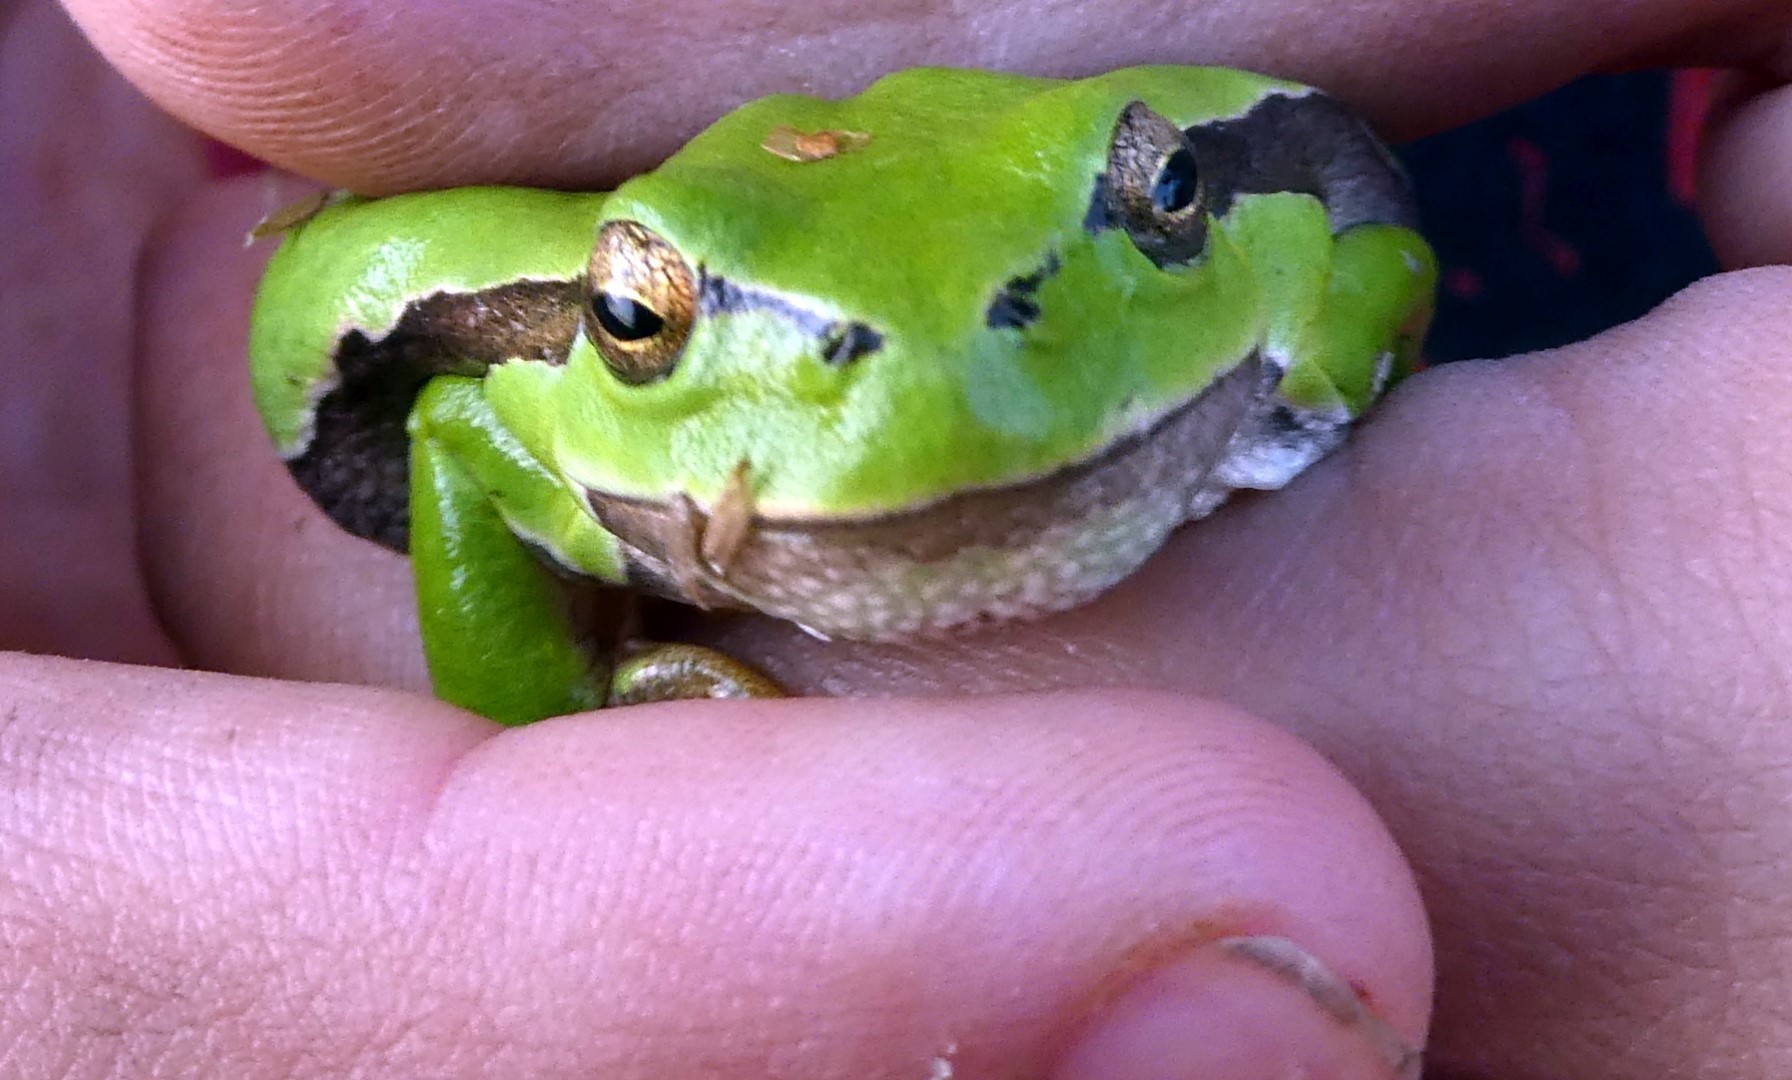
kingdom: Animalia
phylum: Chordata
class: Amphibia
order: Anura
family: Hylidae
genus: Hyla
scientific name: Hyla arborea
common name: Common tree frog
